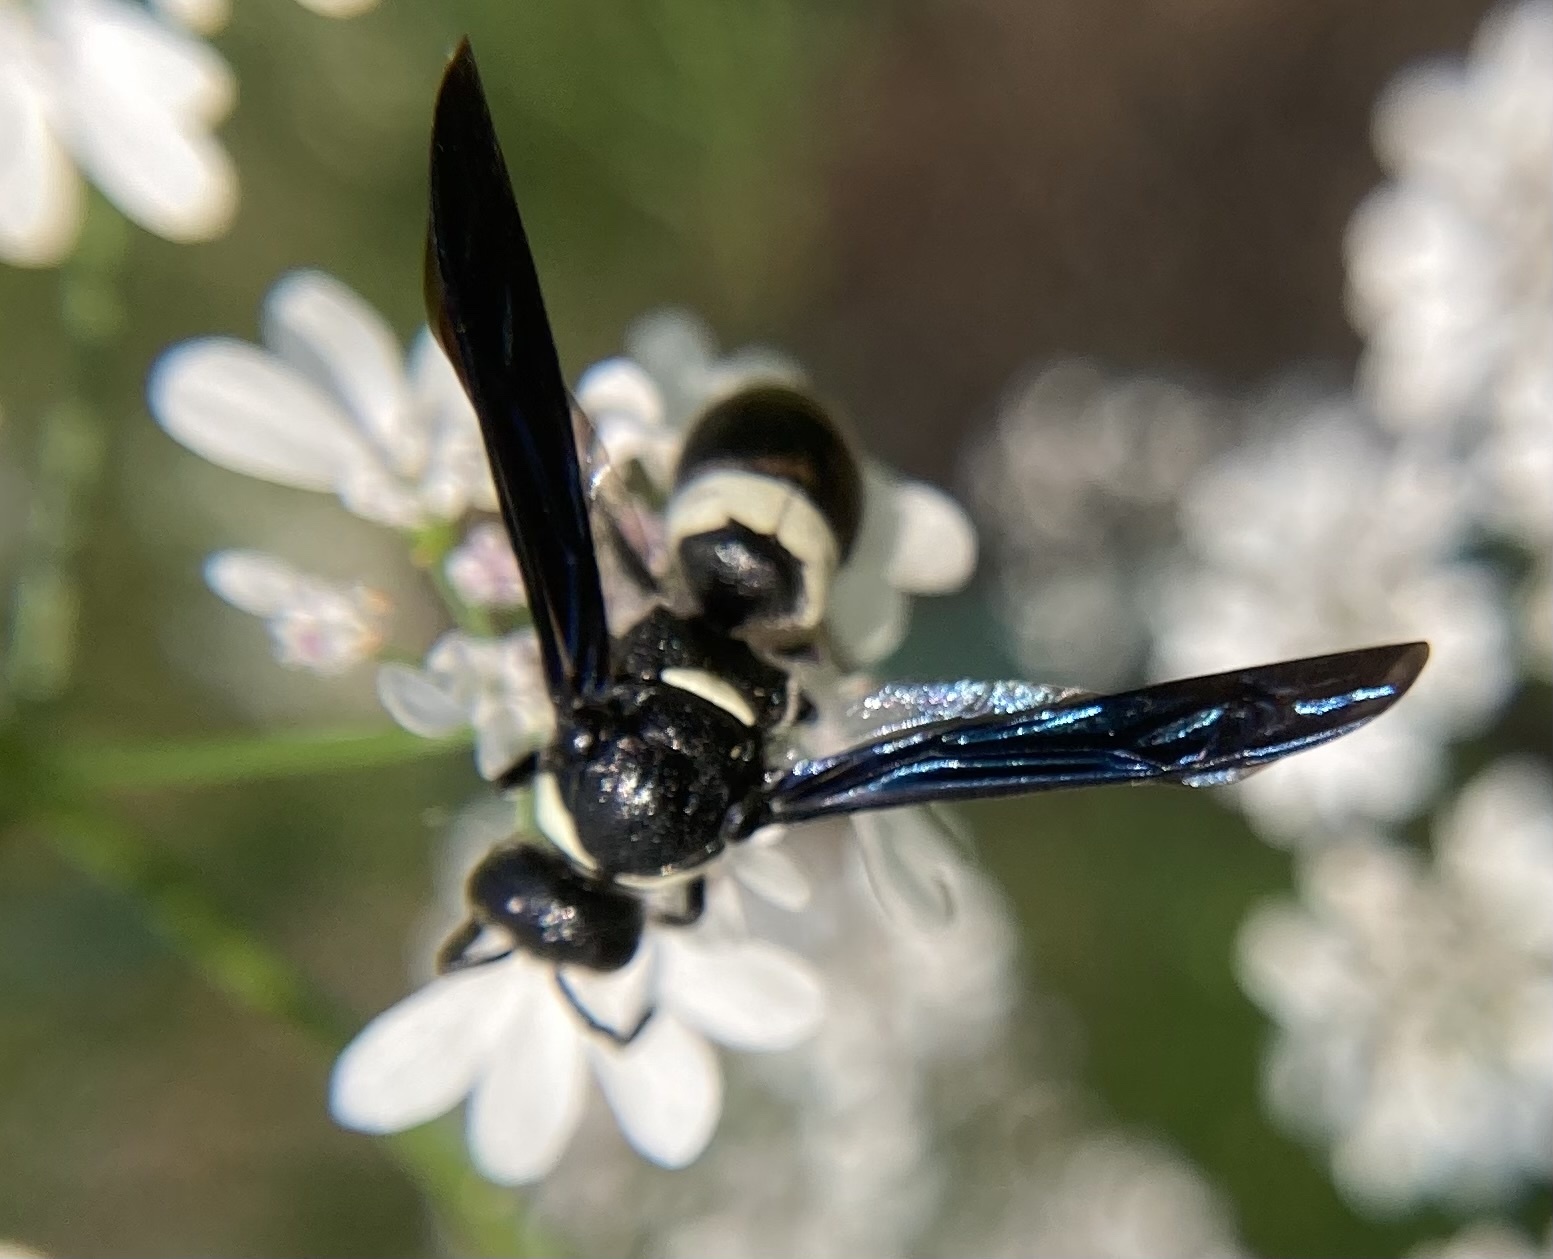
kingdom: Animalia
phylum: Arthropoda
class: Insecta
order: Hymenoptera
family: Eumenidae
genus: Monobia
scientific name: Monobia quadridens
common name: Four-toothed mason wasp
